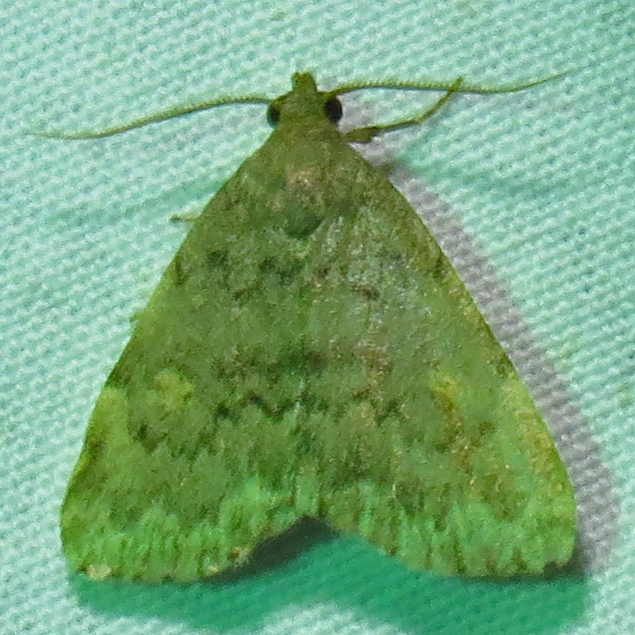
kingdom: Animalia
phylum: Arthropoda
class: Insecta
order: Lepidoptera
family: Erebidae
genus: Idia
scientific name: Idia aemula
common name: Common idia moth
